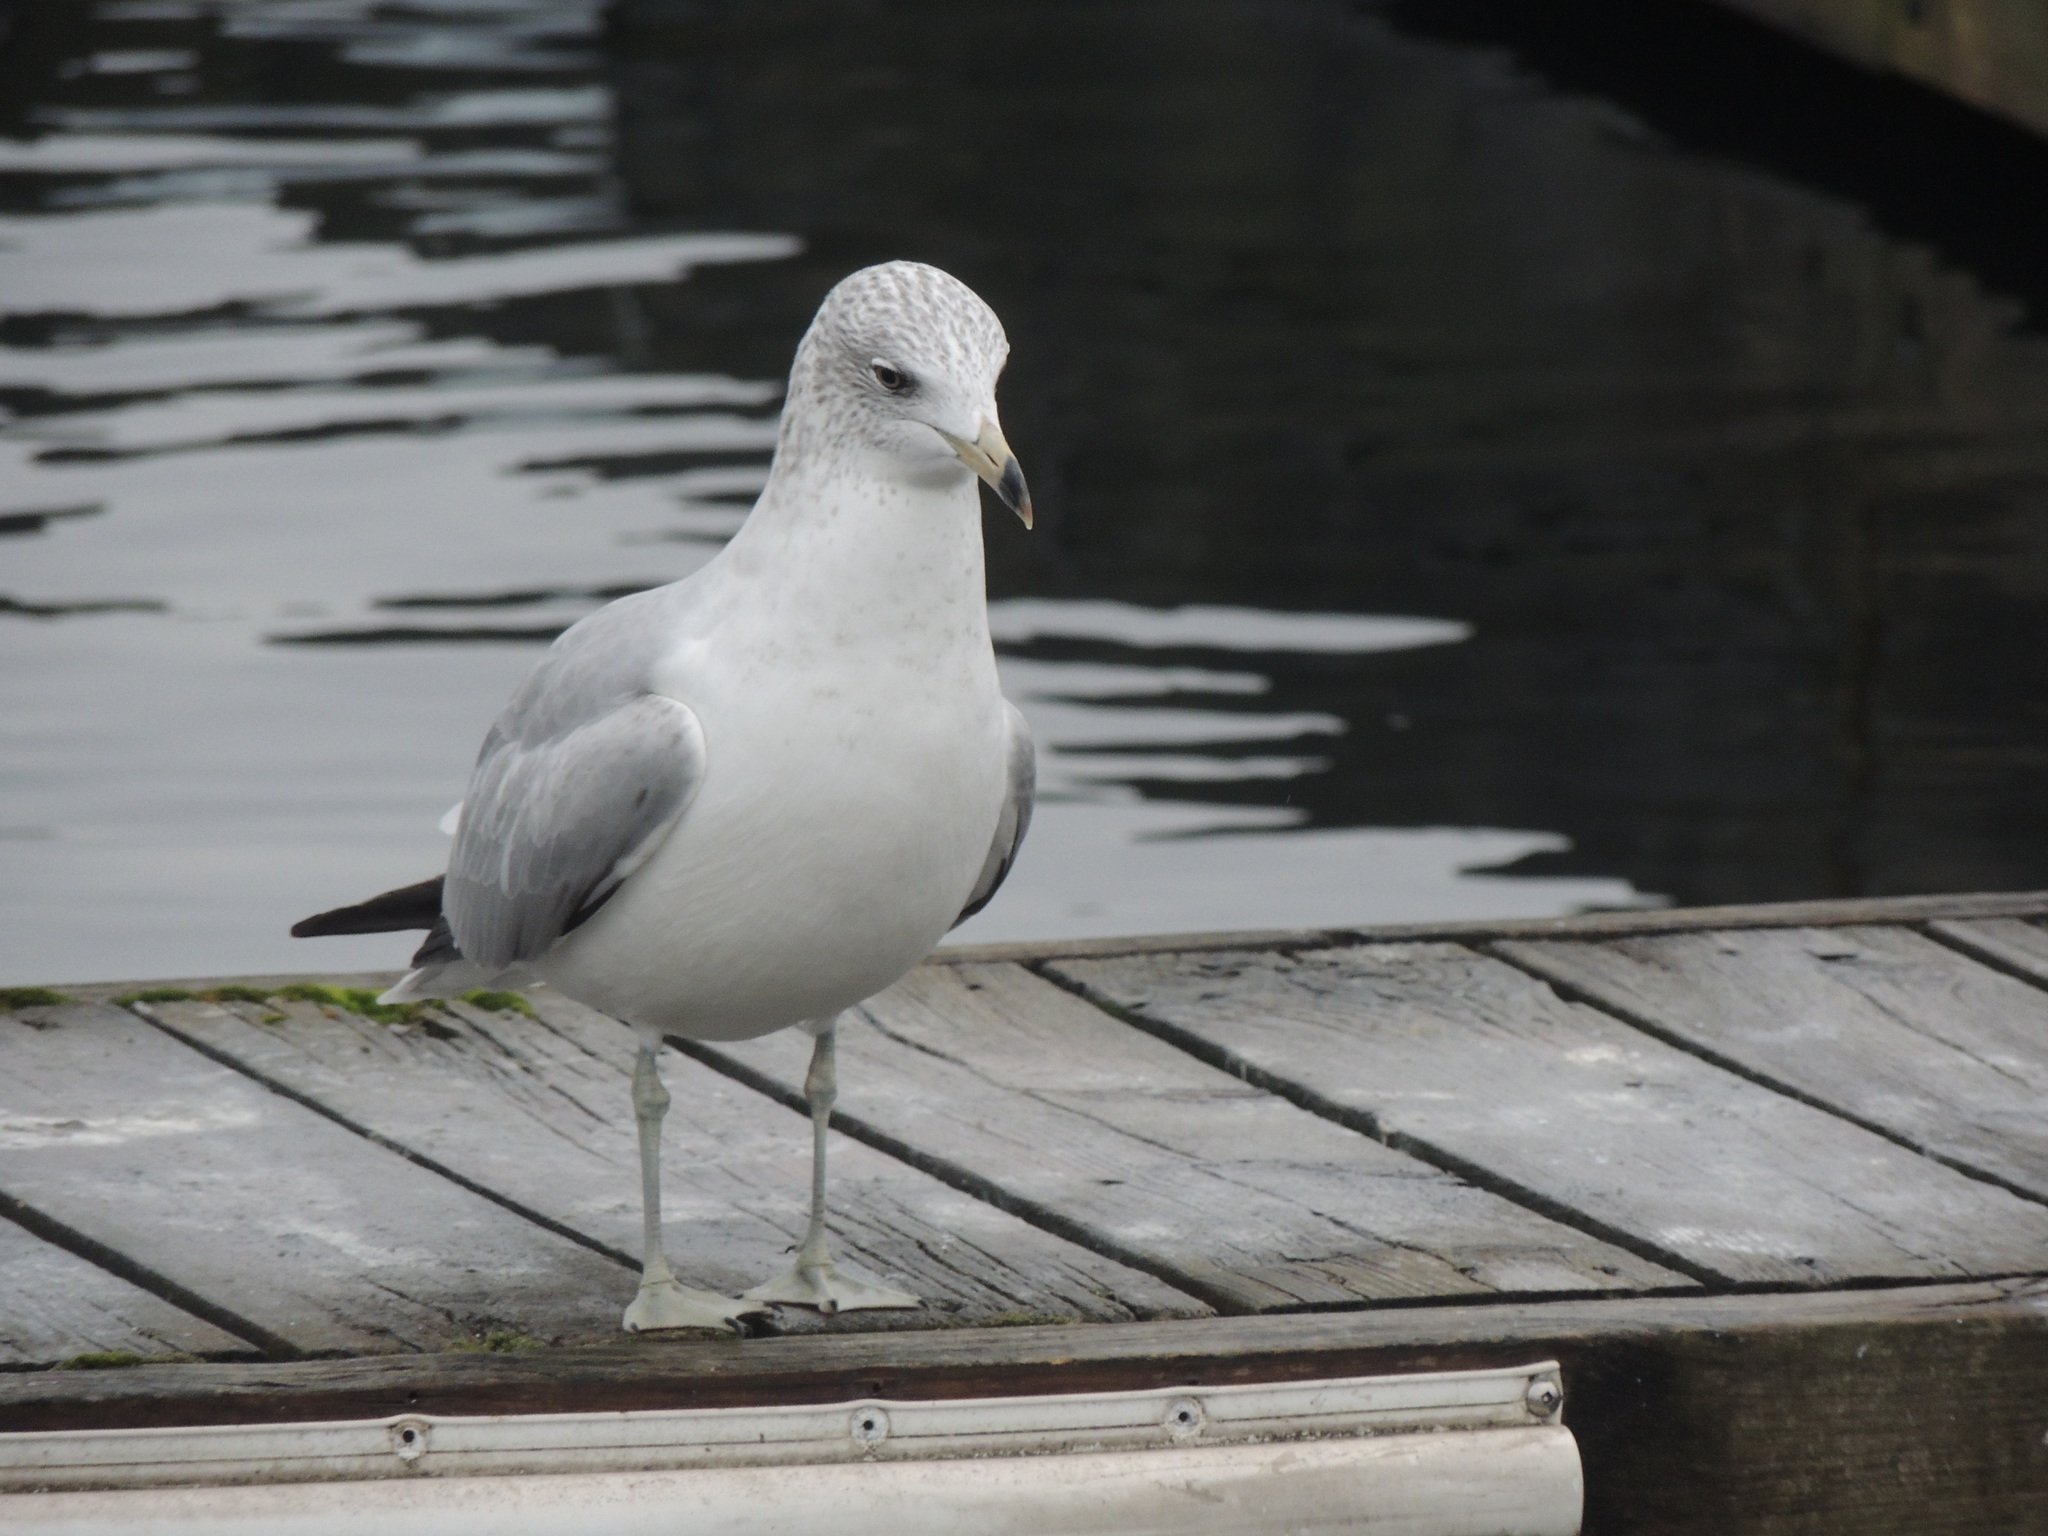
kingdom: Animalia
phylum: Chordata
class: Aves
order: Charadriiformes
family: Laridae
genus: Larus
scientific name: Larus delawarensis
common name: Ring-billed gull
